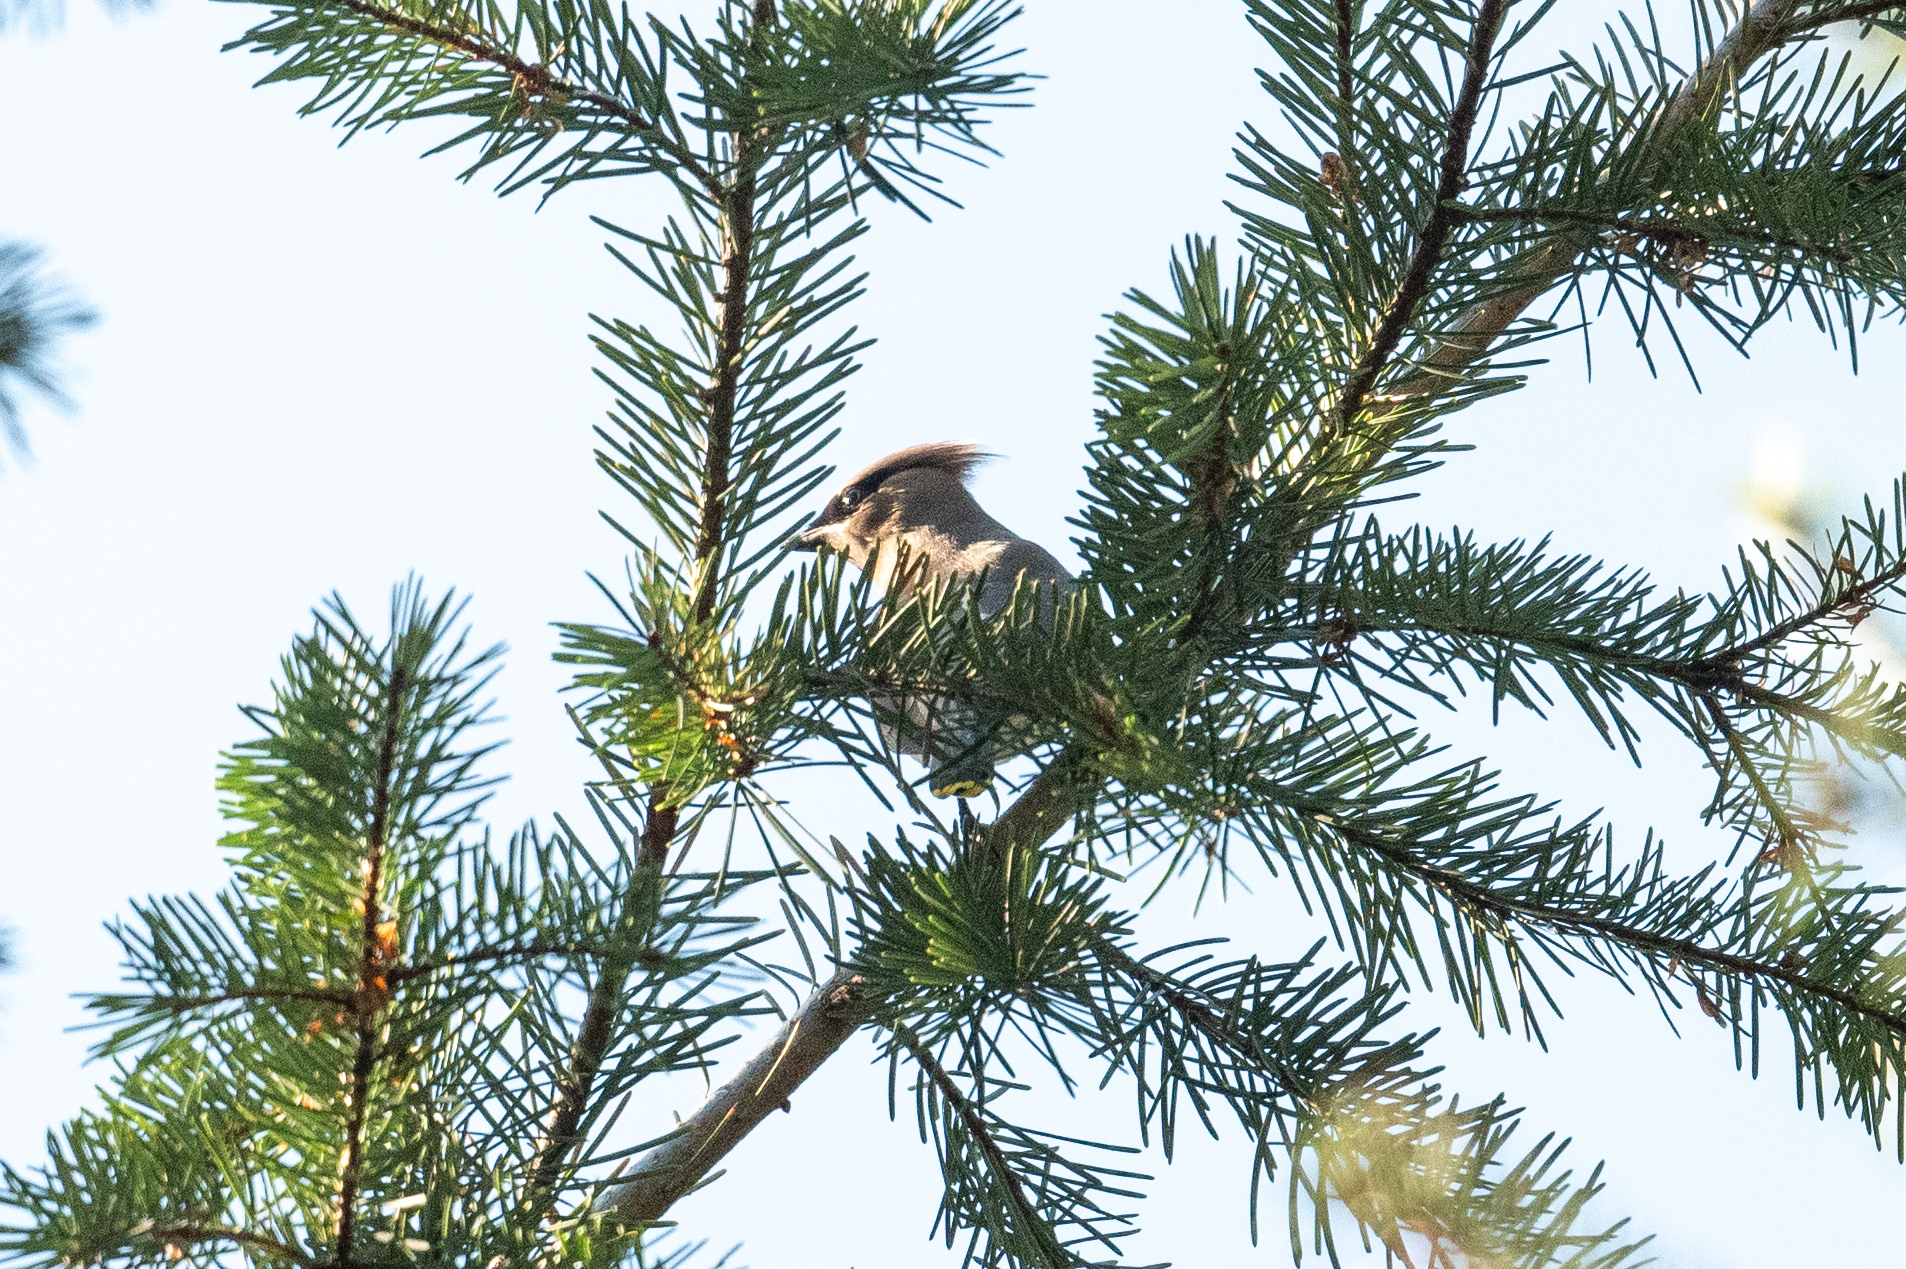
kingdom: Animalia
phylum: Chordata
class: Aves
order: Passeriformes
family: Bombycillidae
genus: Bombycilla
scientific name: Bombycilla cedrorum
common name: Cedar waxwing
